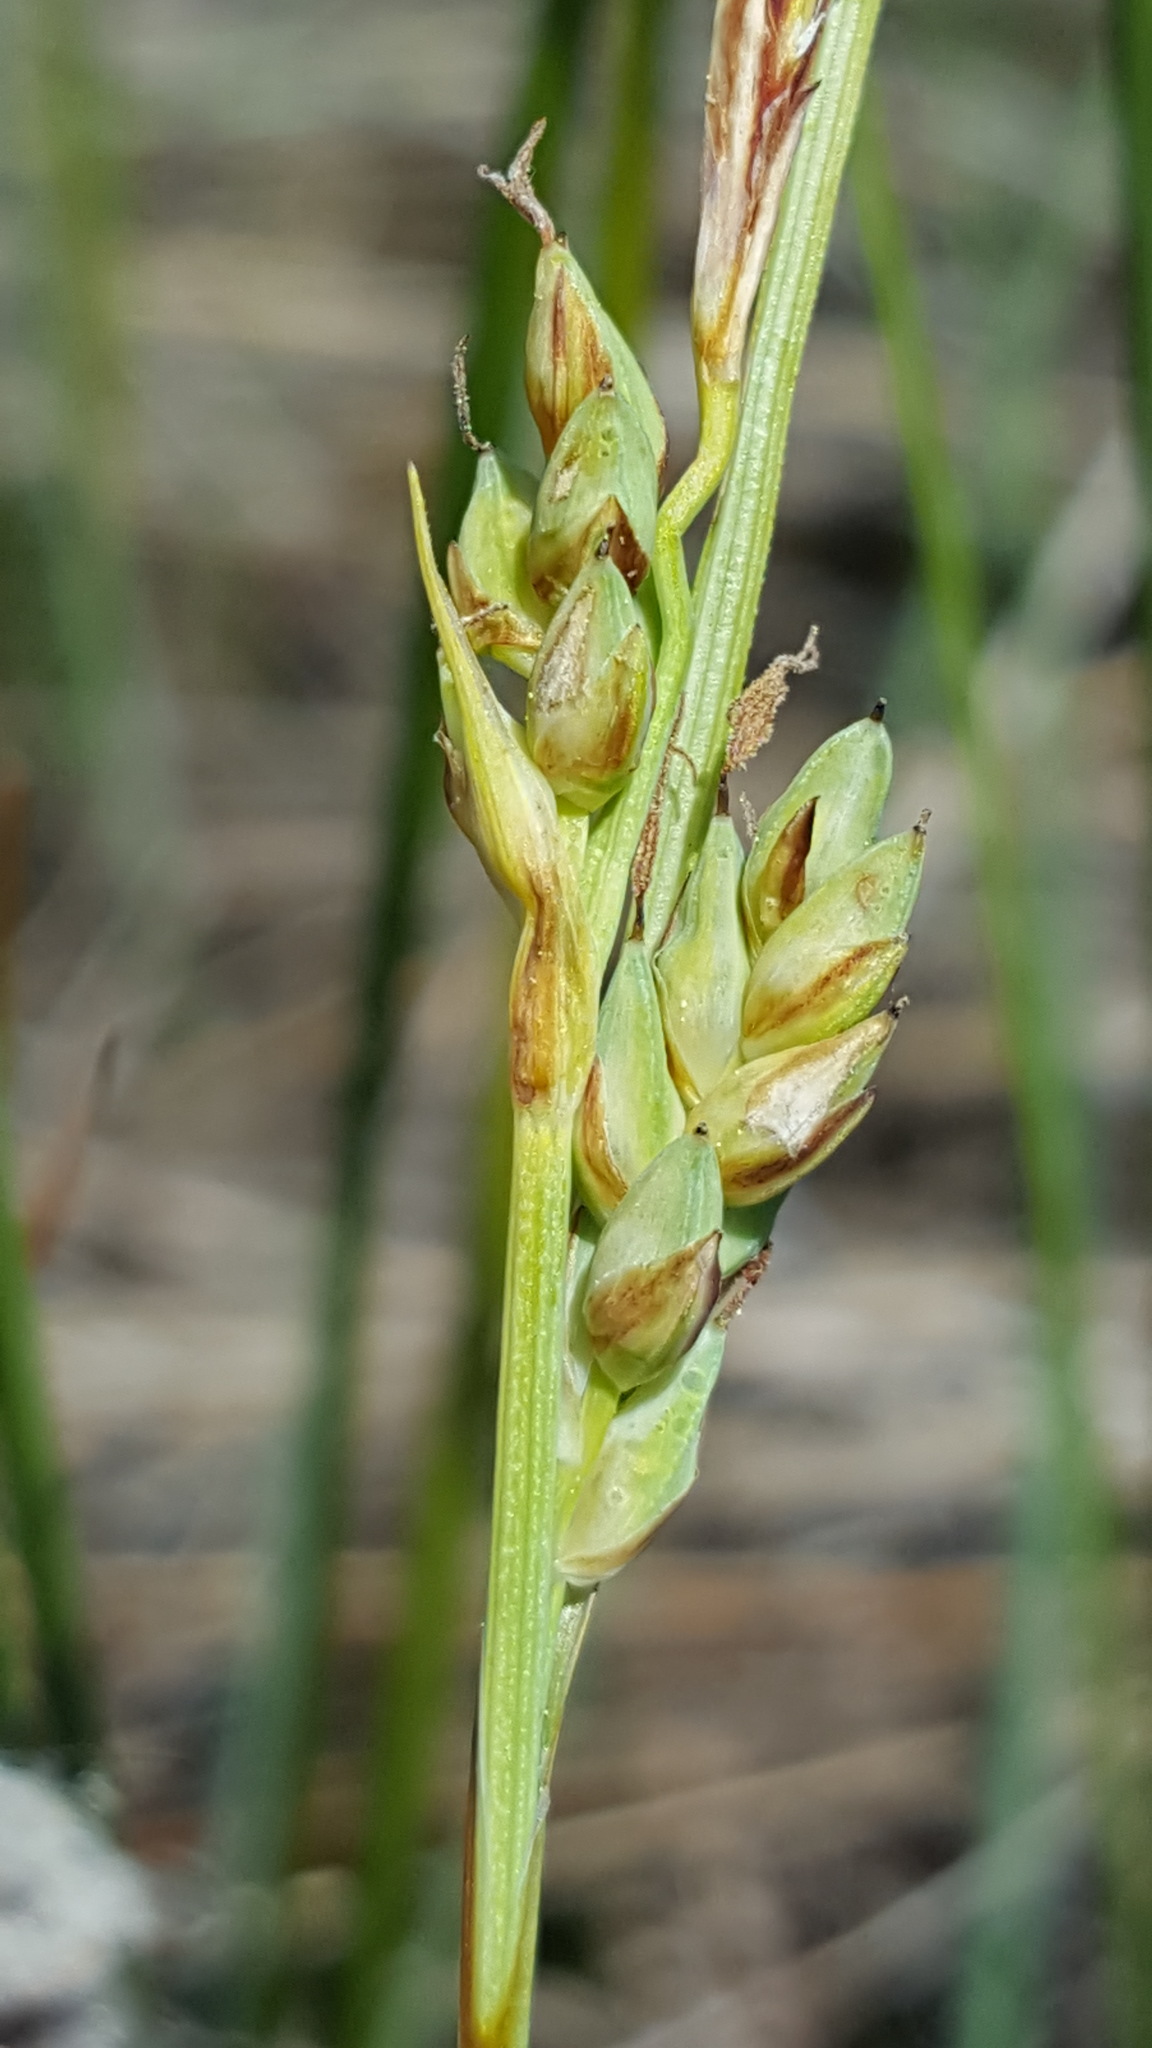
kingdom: Plantae
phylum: Tracheophyta
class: Liliopsida
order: Poales
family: Cyperaceae
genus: Carex
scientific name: Carex livida
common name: Livid sedge
